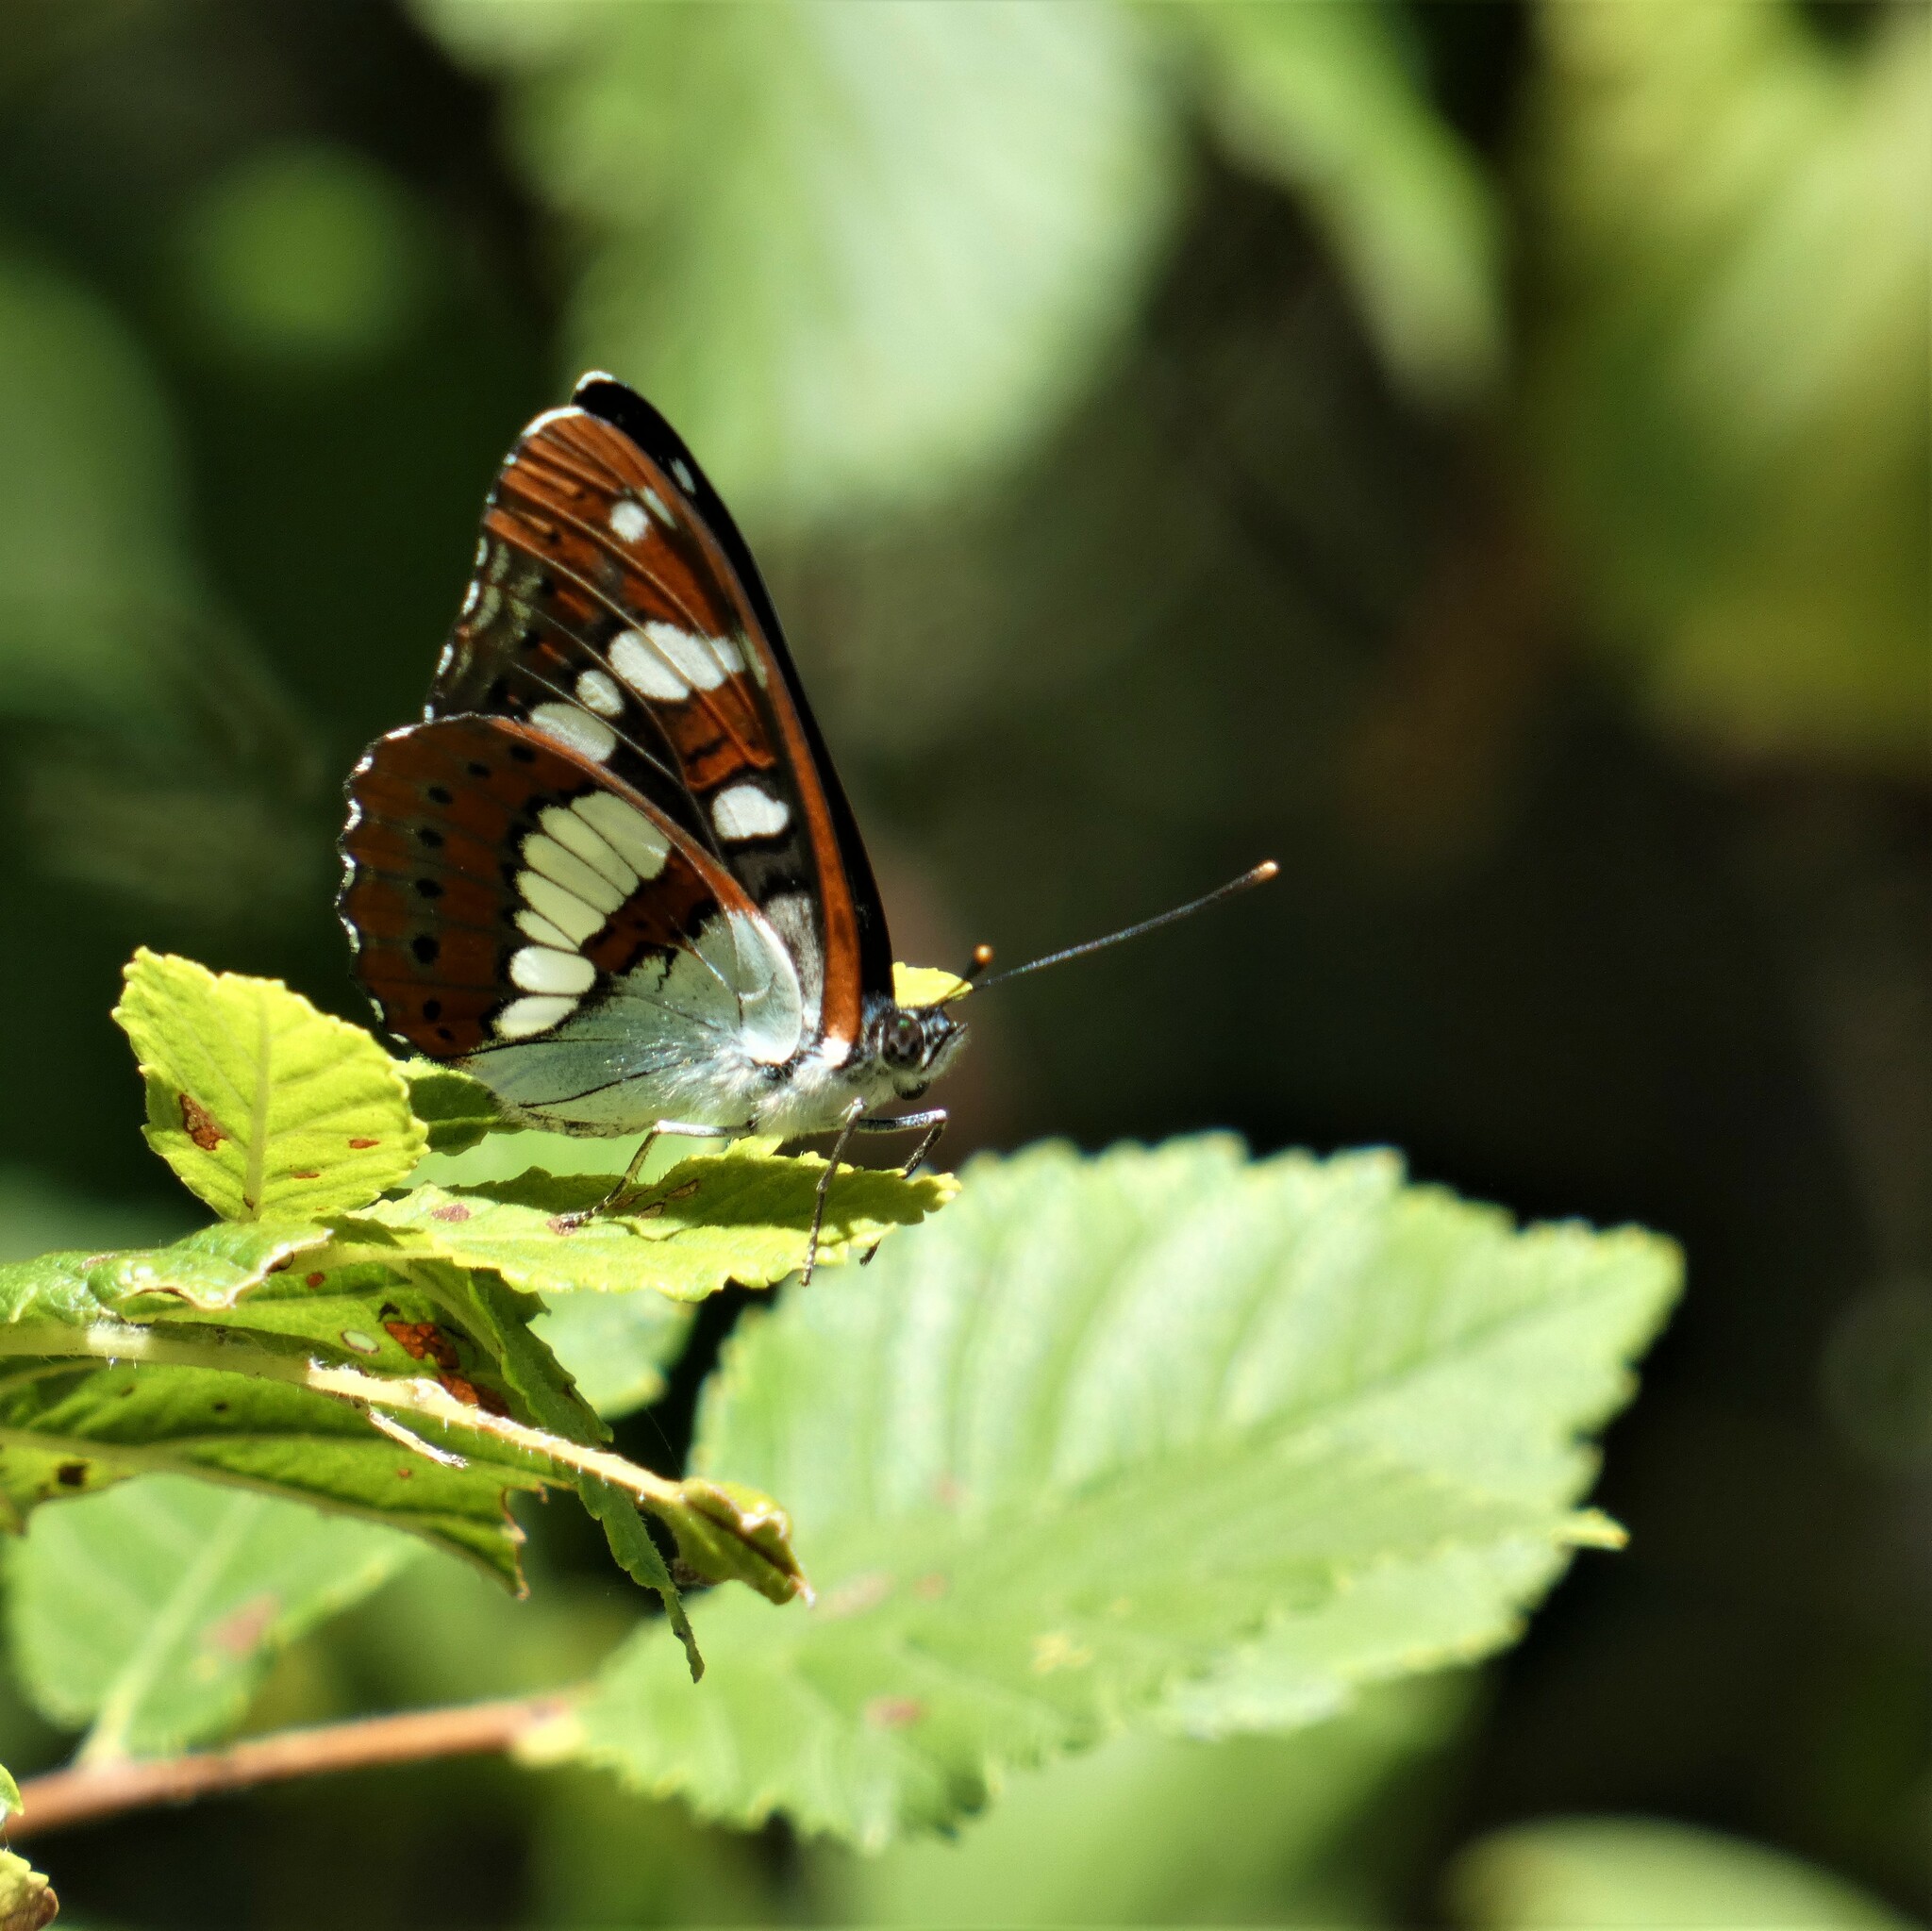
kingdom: Animalia
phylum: Arthropoda
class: Insecta
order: Lepidoptera
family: Nymphalidae
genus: Limenitis
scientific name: Limenitis reducta
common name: Southern white admiral
